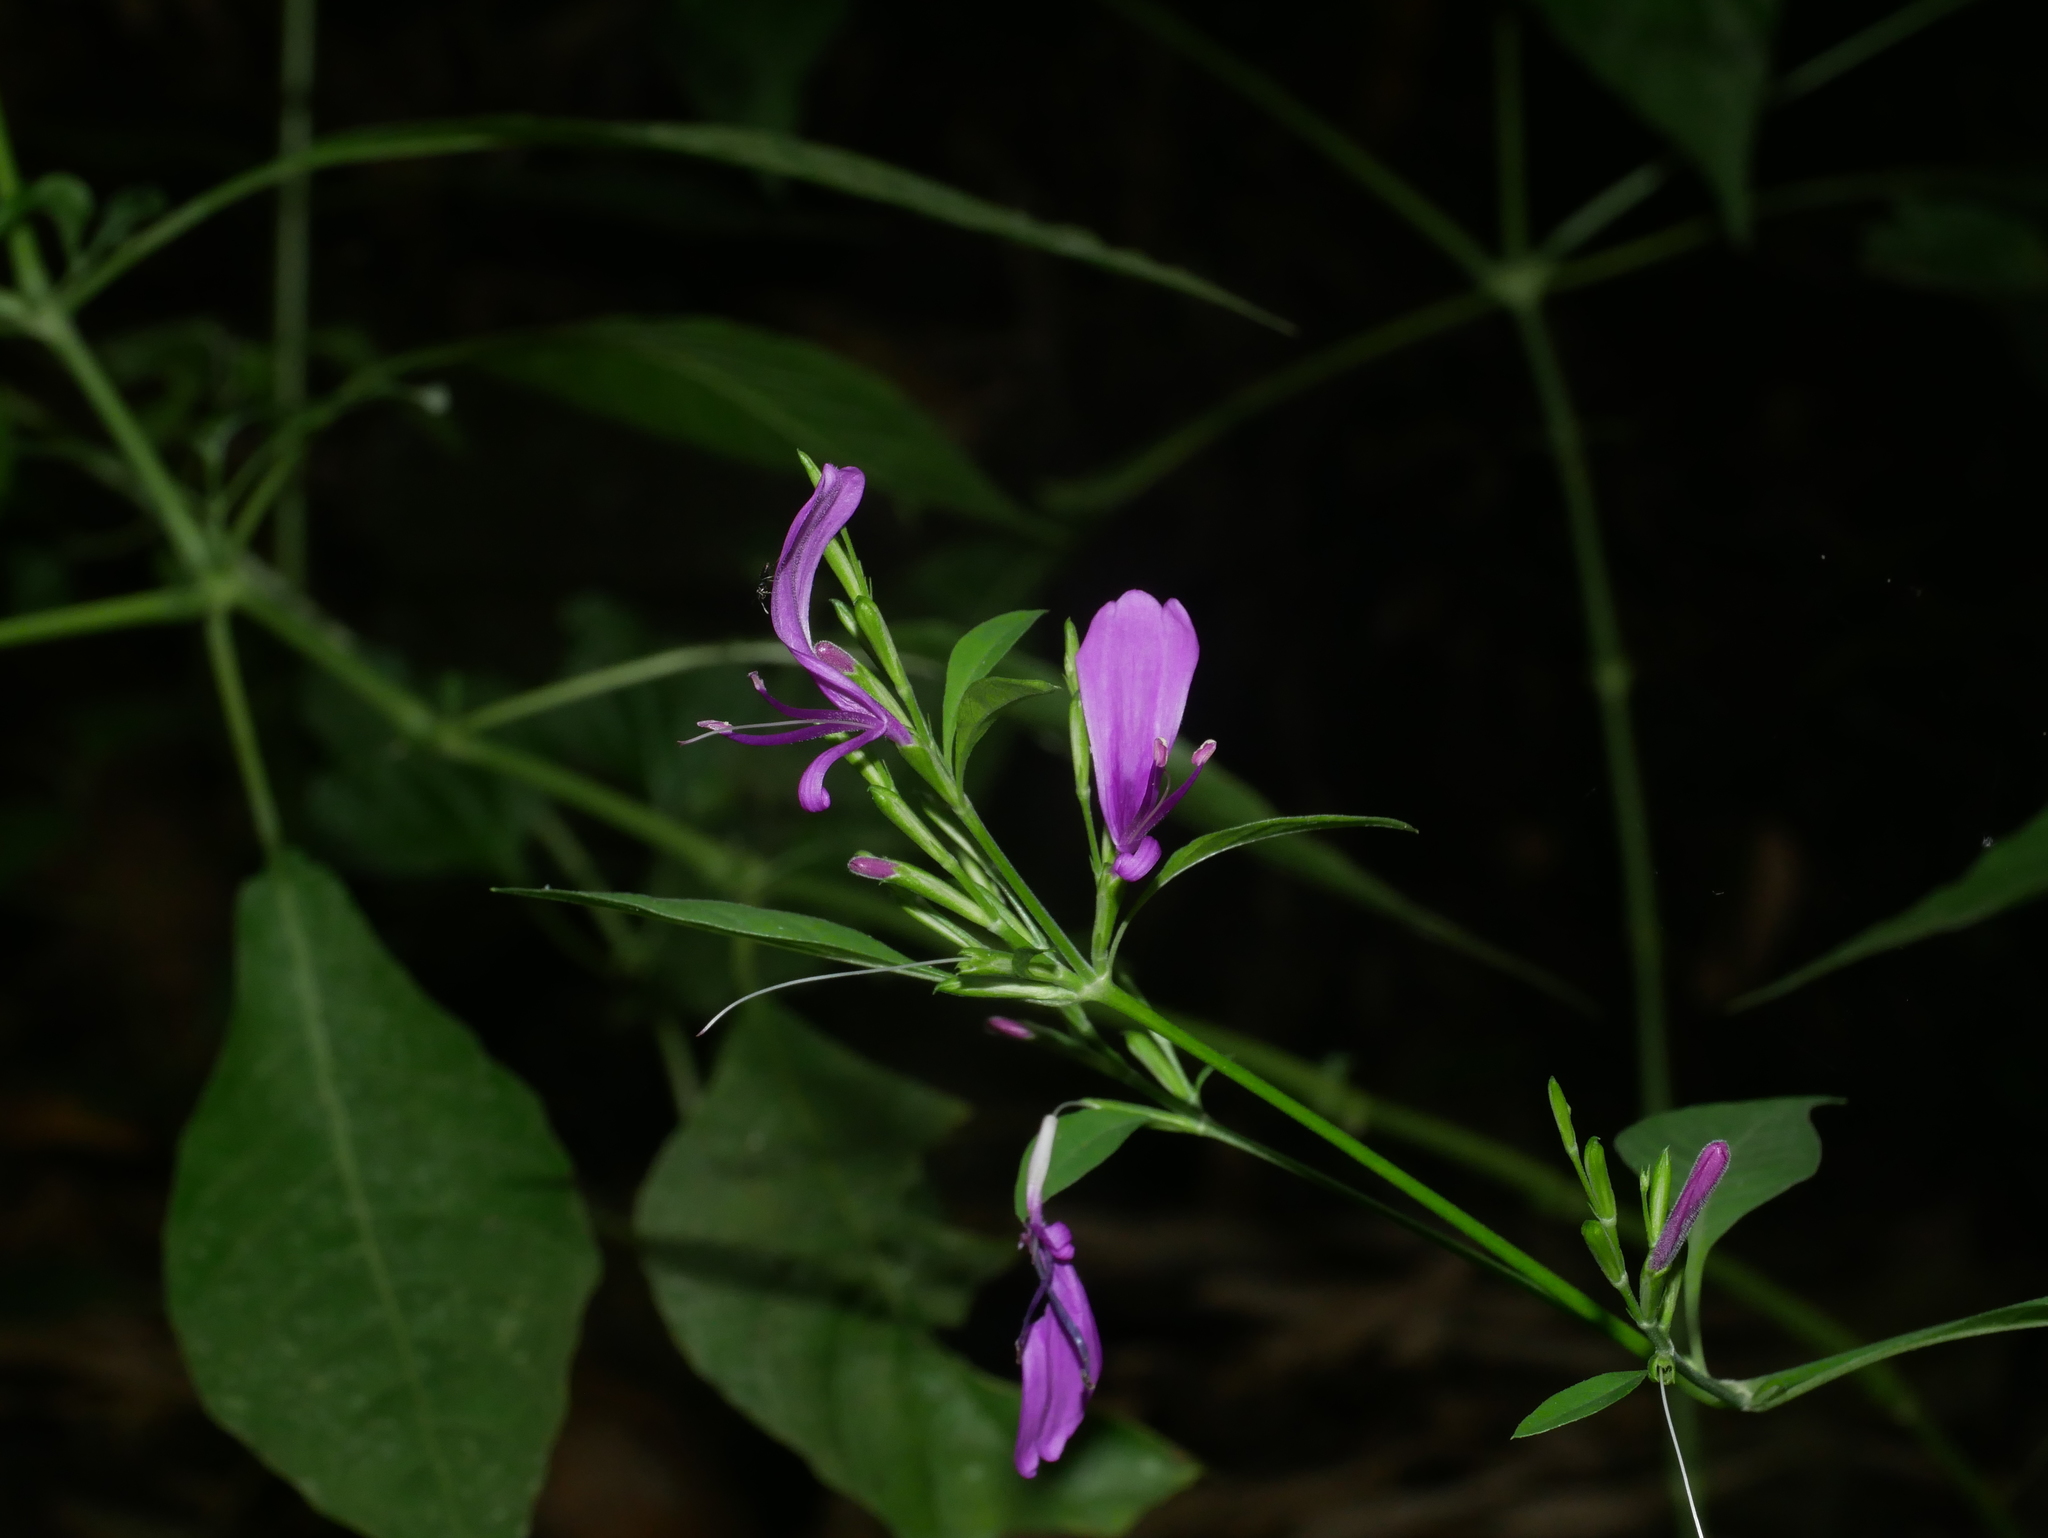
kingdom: Plantae
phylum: Tracheophyta
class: Magnoliopsida
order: Lamiales
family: Acanthaceae
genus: Hypoestes
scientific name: Hypoestes purpurea
